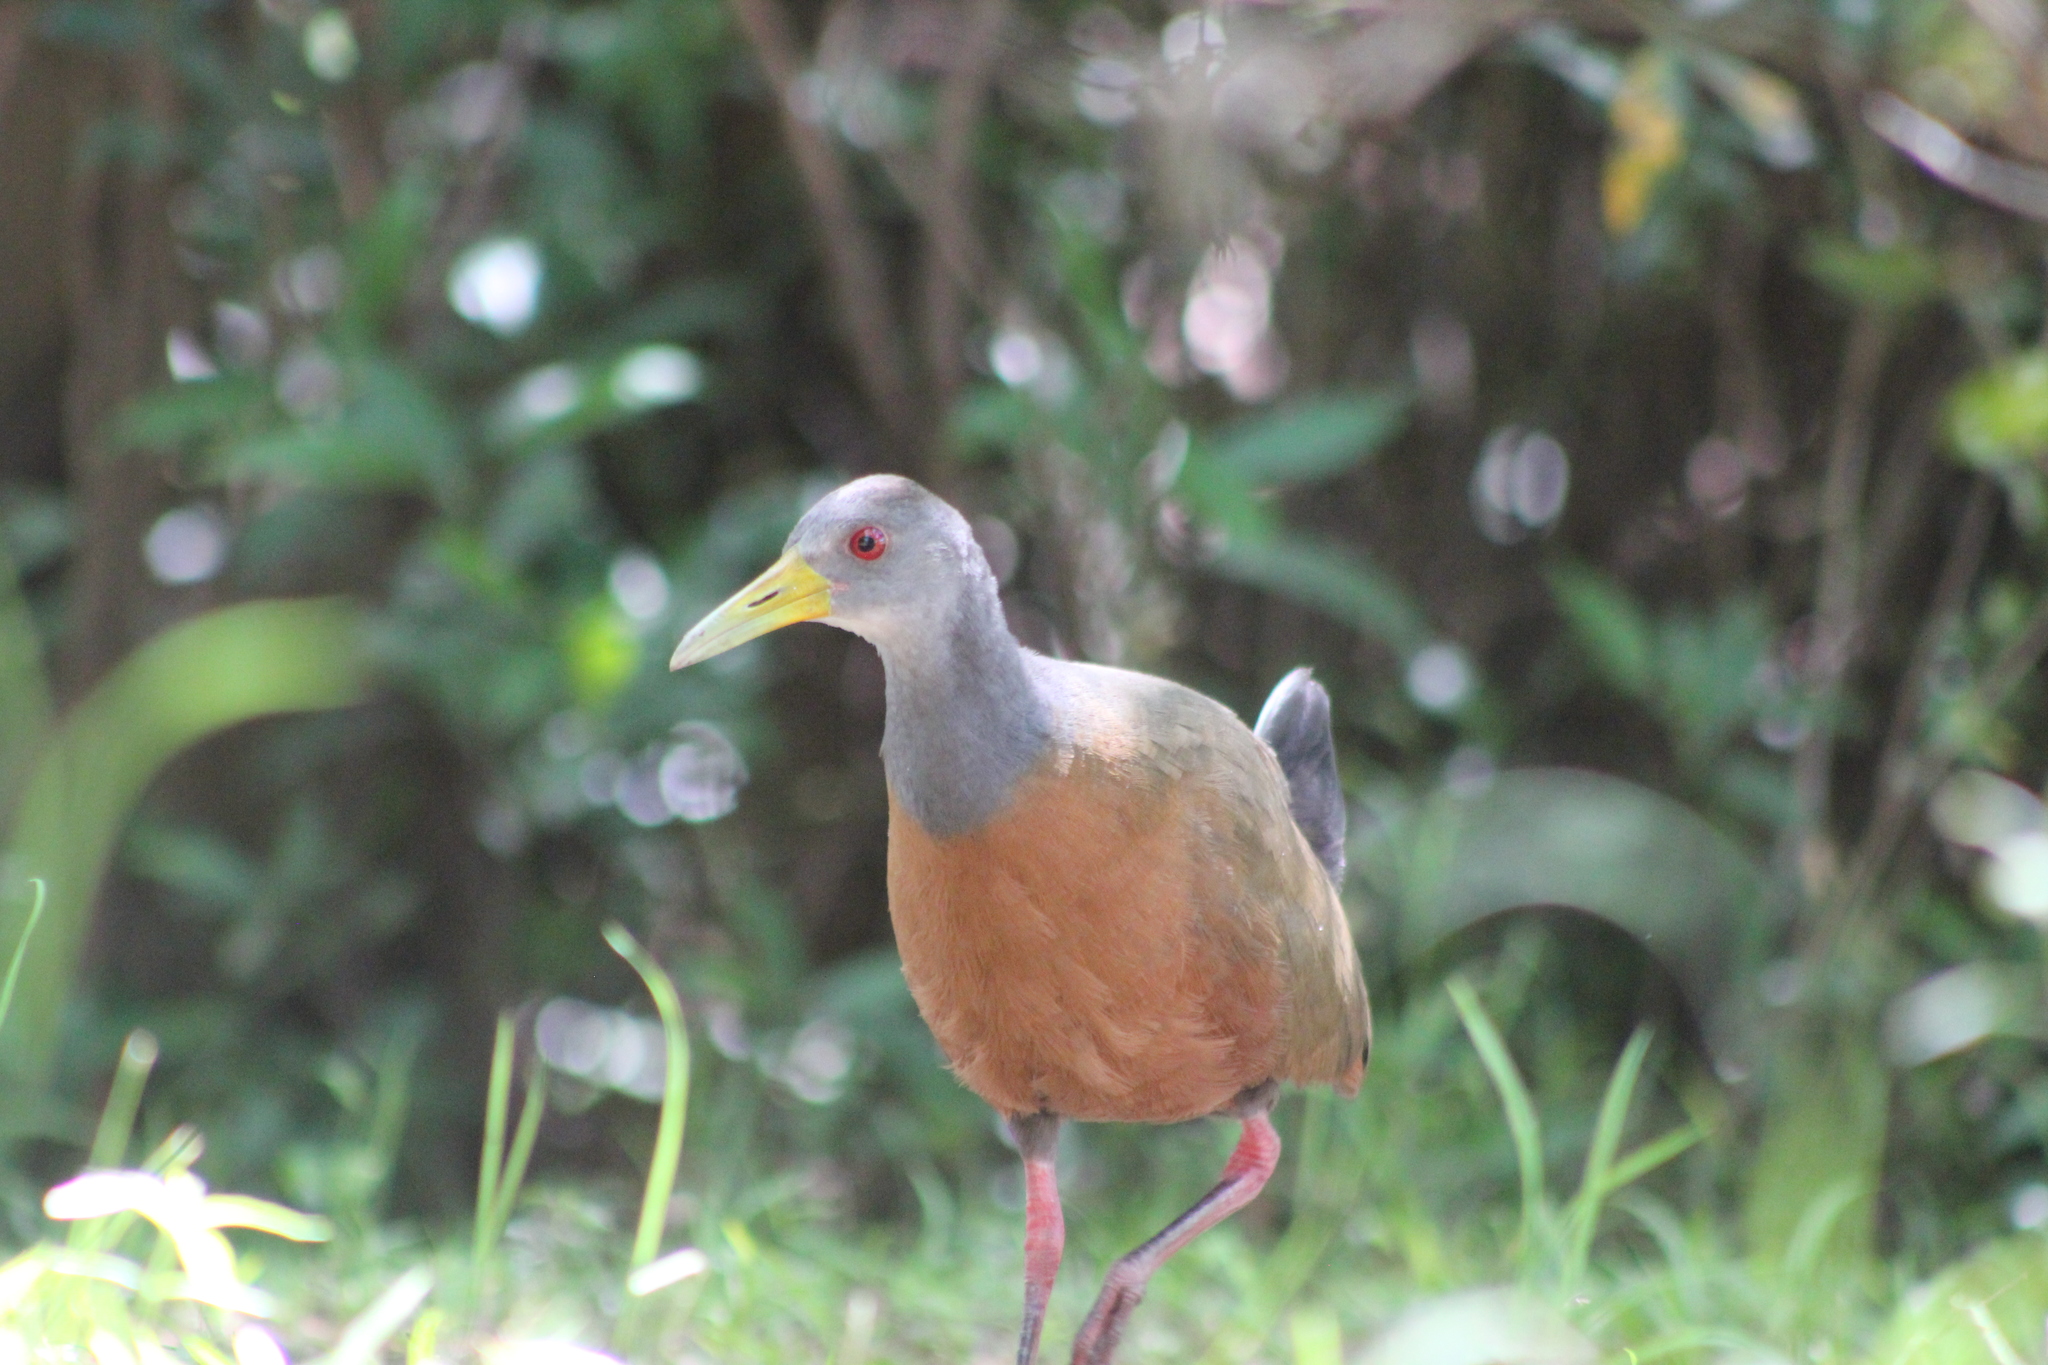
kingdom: Animalia
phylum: Chordata
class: Aves
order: Gruiformes
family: Rallidae
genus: Aramides
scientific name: Aramides cajanea
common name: Gray-necked wood-rail
